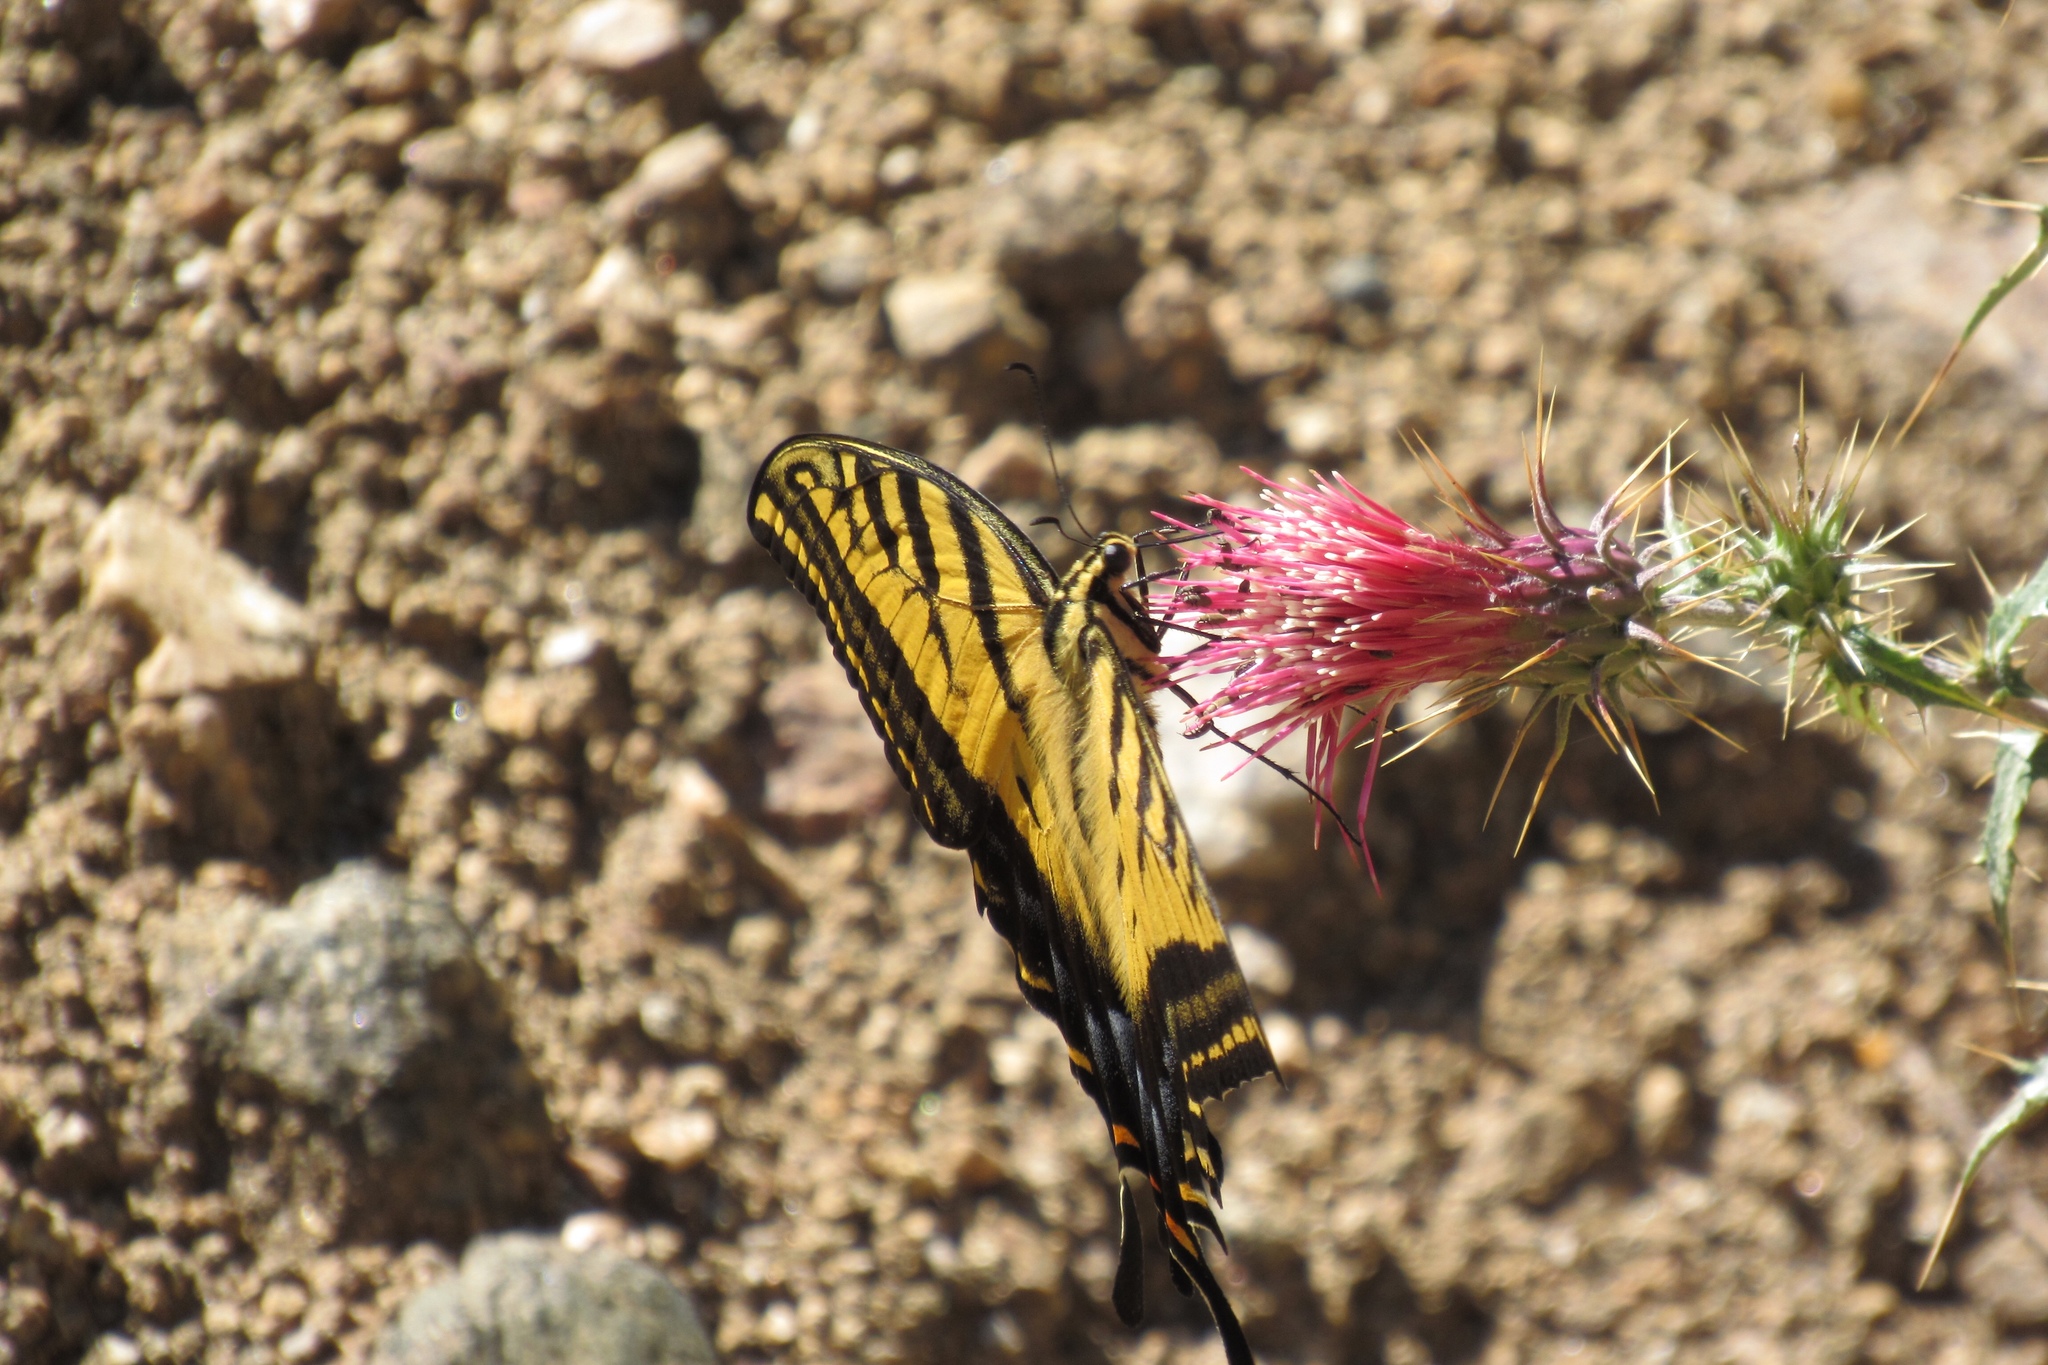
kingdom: Animalia
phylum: Arthropoda
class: Insecta
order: Lepidoptera
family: Papilionidae
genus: Papilio
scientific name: Papilio multicaudata
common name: Two-tailed tiger swallowtail
